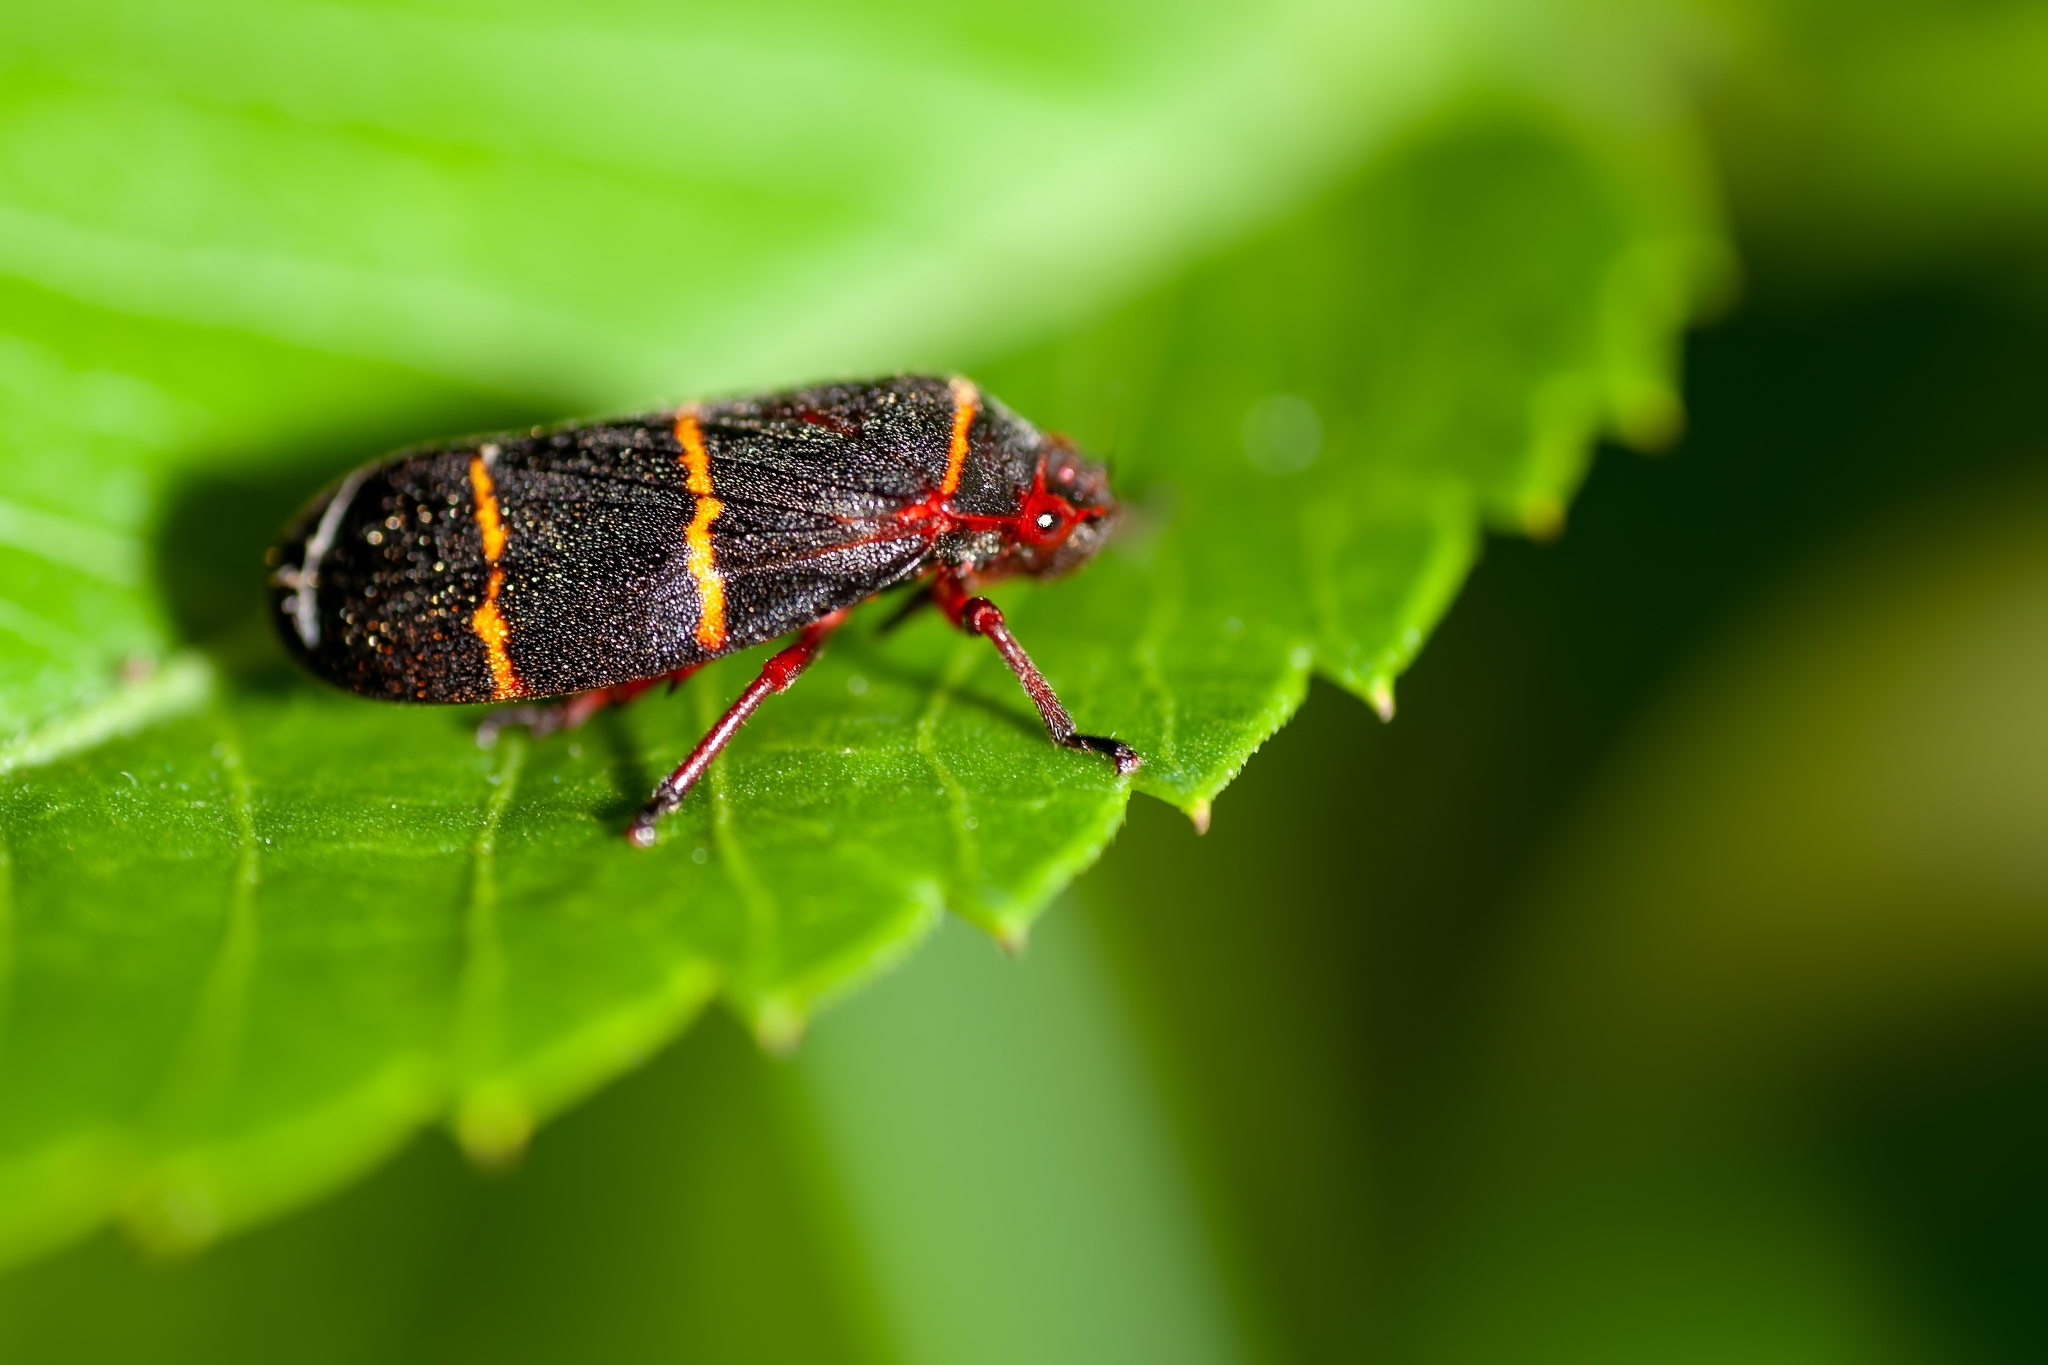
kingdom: Animalia
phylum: Arthropoda
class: Insecta
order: Hemiptera
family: Cercopidae
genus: Prosapia
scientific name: Prosapia bicincta
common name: Twolined spittlebug
